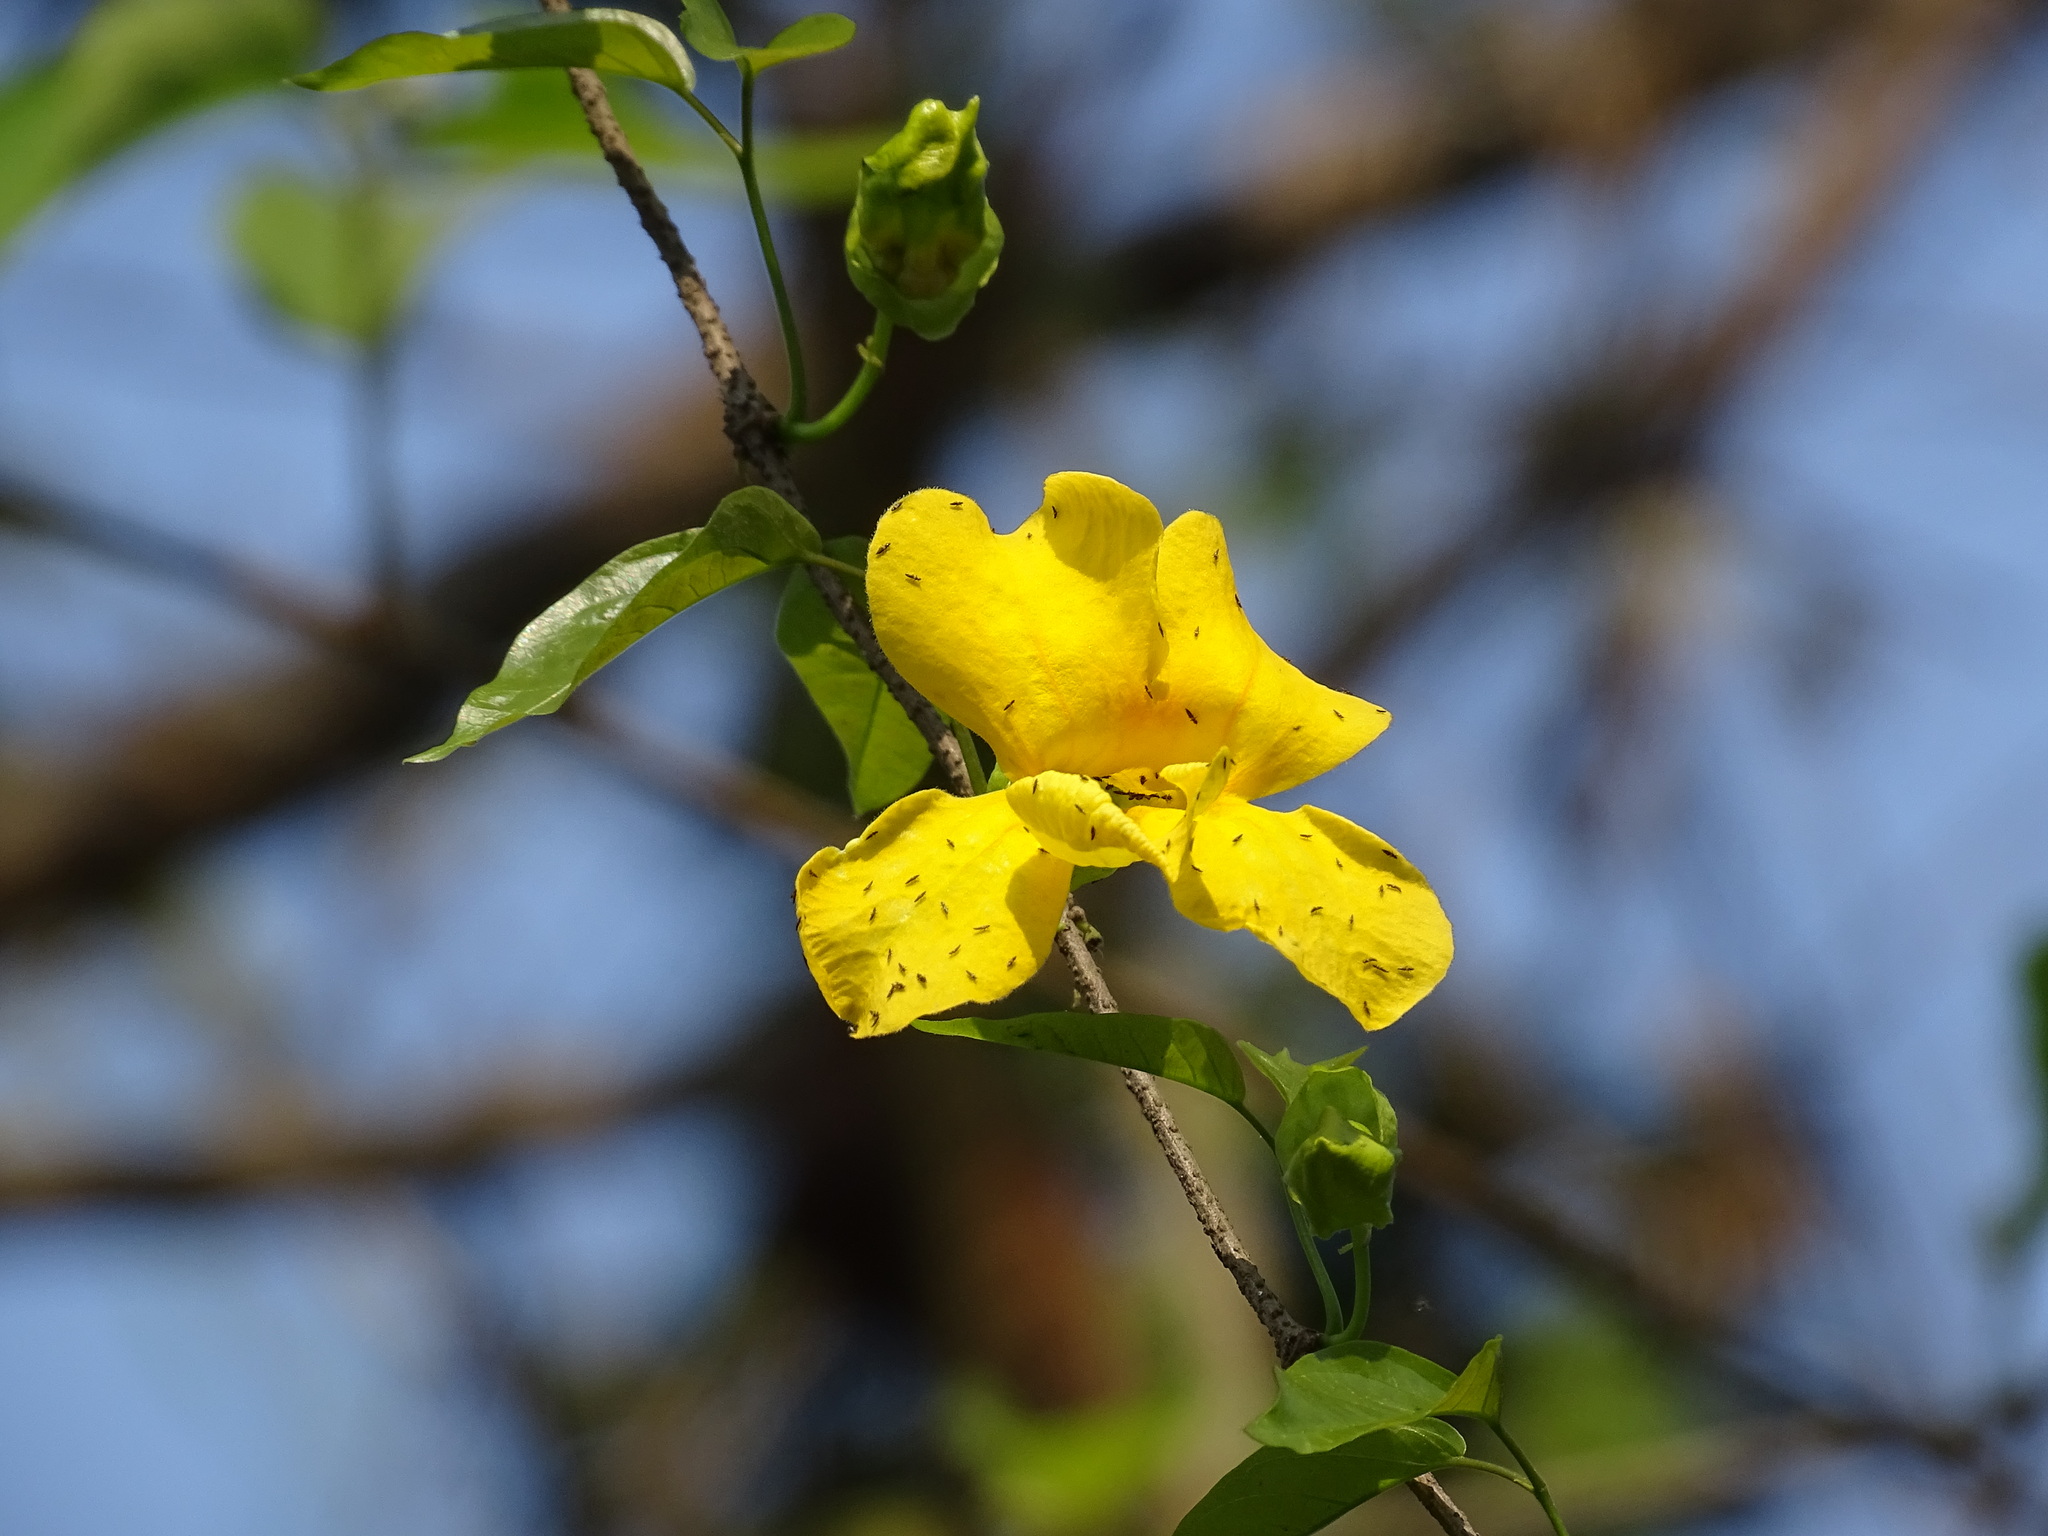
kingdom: Plantae
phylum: Tracheophyta
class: Magnoliopsida
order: Lamiales
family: Bignoniaceae
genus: Dolichandra
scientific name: Dolichandra unguis-cati
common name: Catclaw vine
